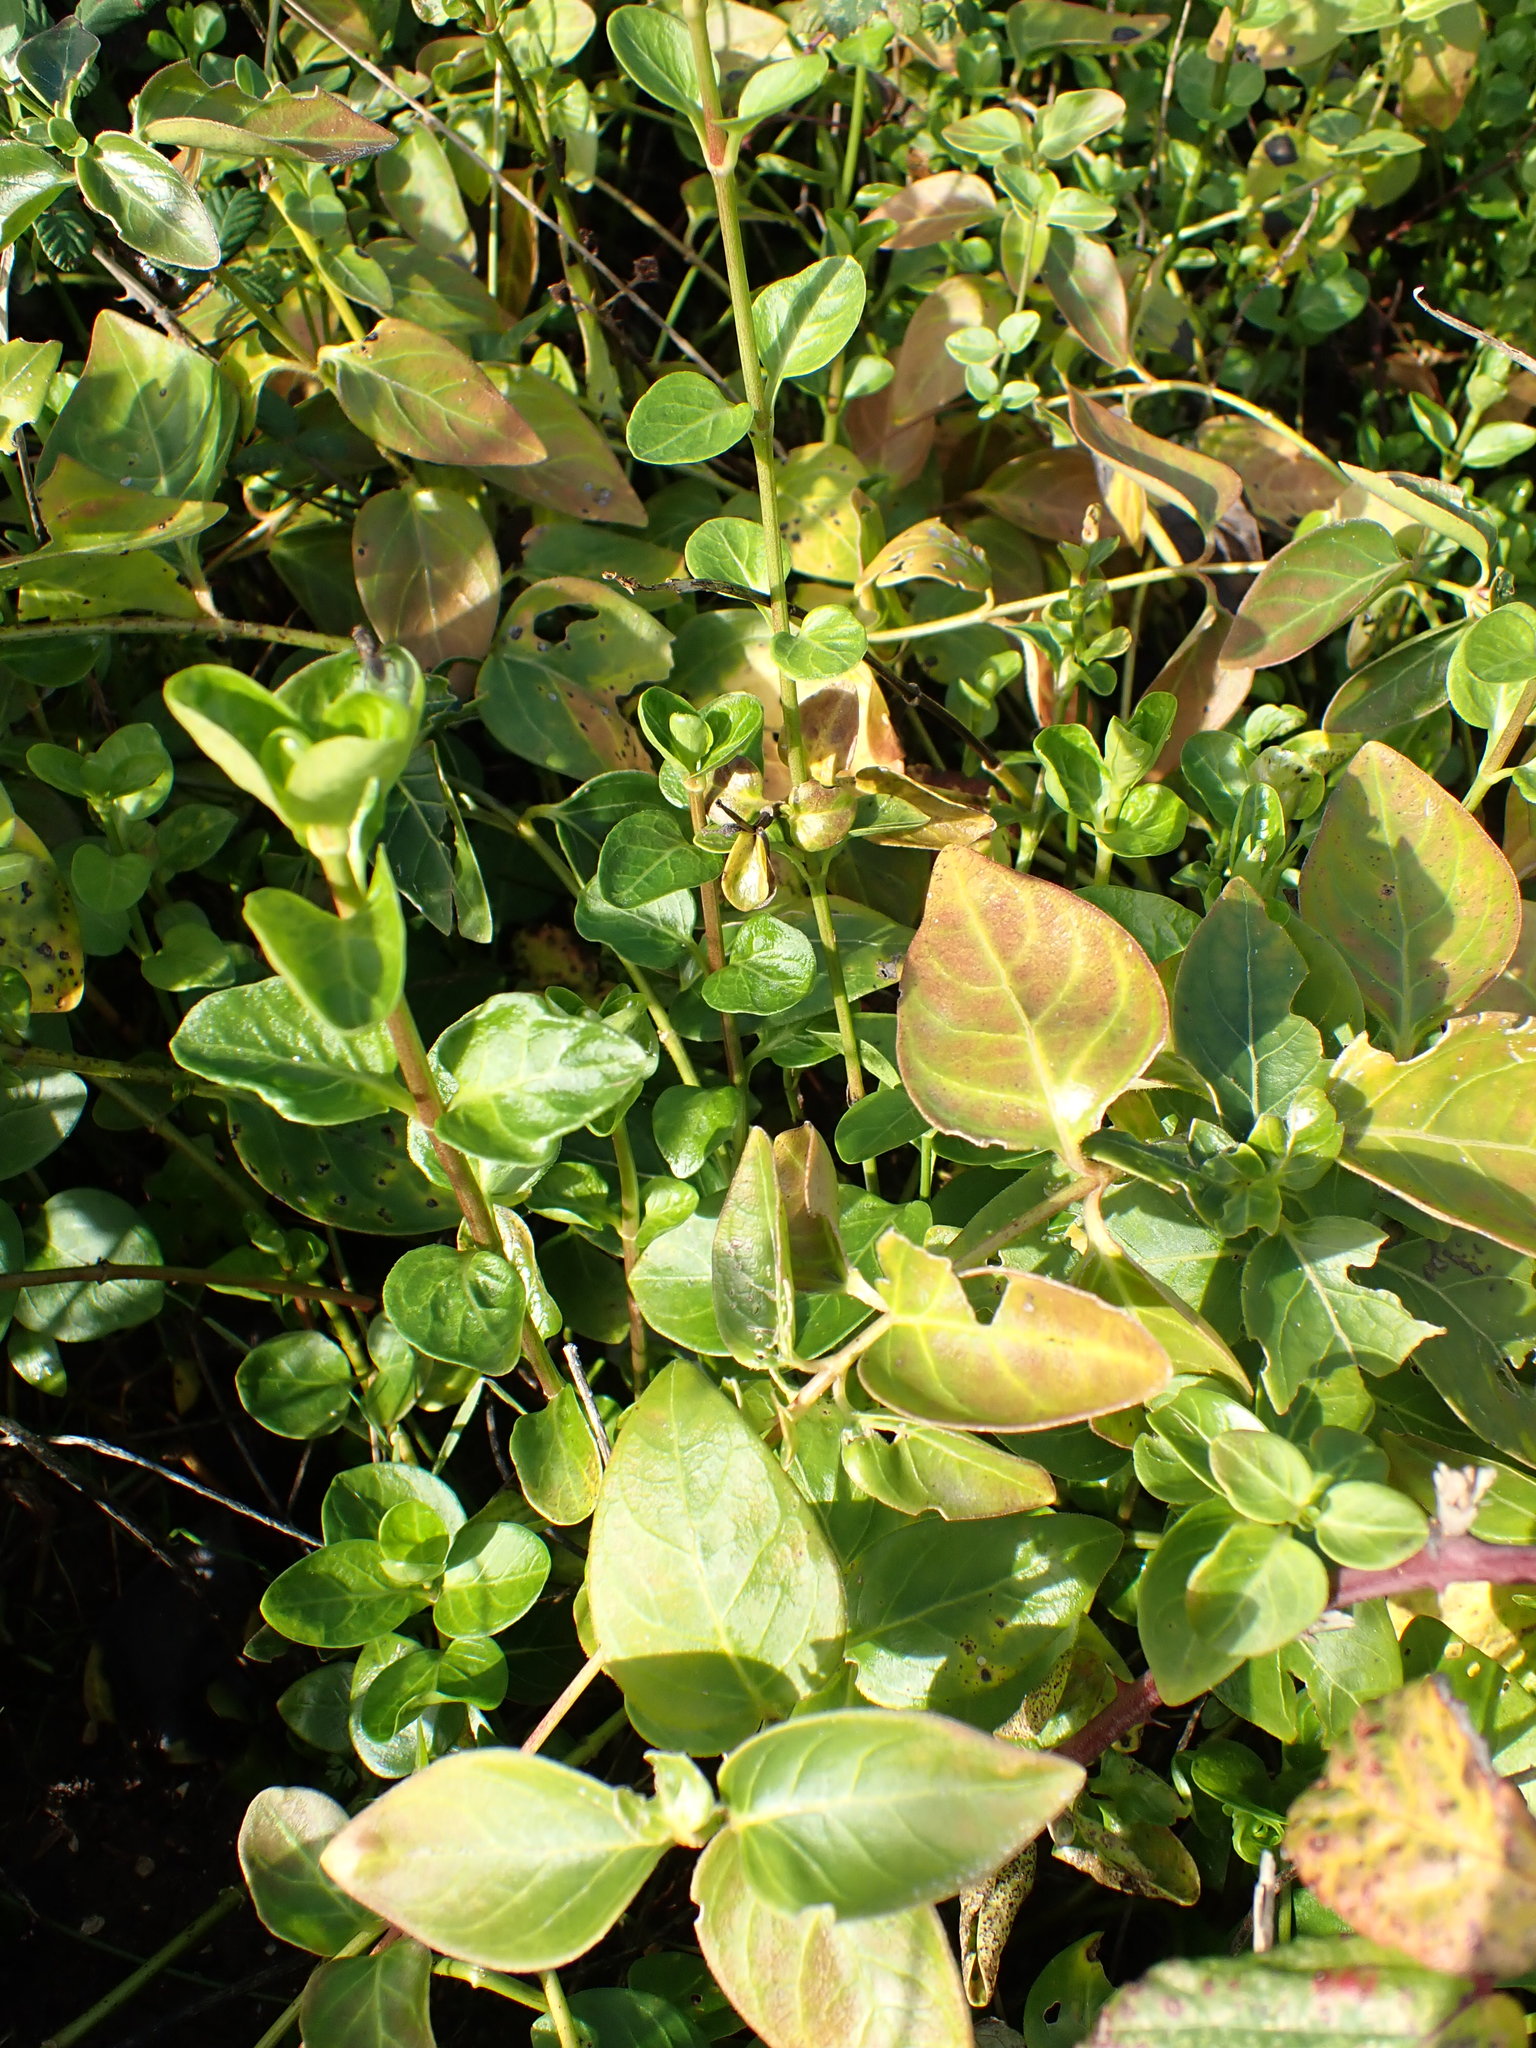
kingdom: Plantae
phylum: Tracheophyta
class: Magnoliopsida
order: Gentianales
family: Apocynaceae
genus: Vinca
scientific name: Vinca major
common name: Greater periwinkle
